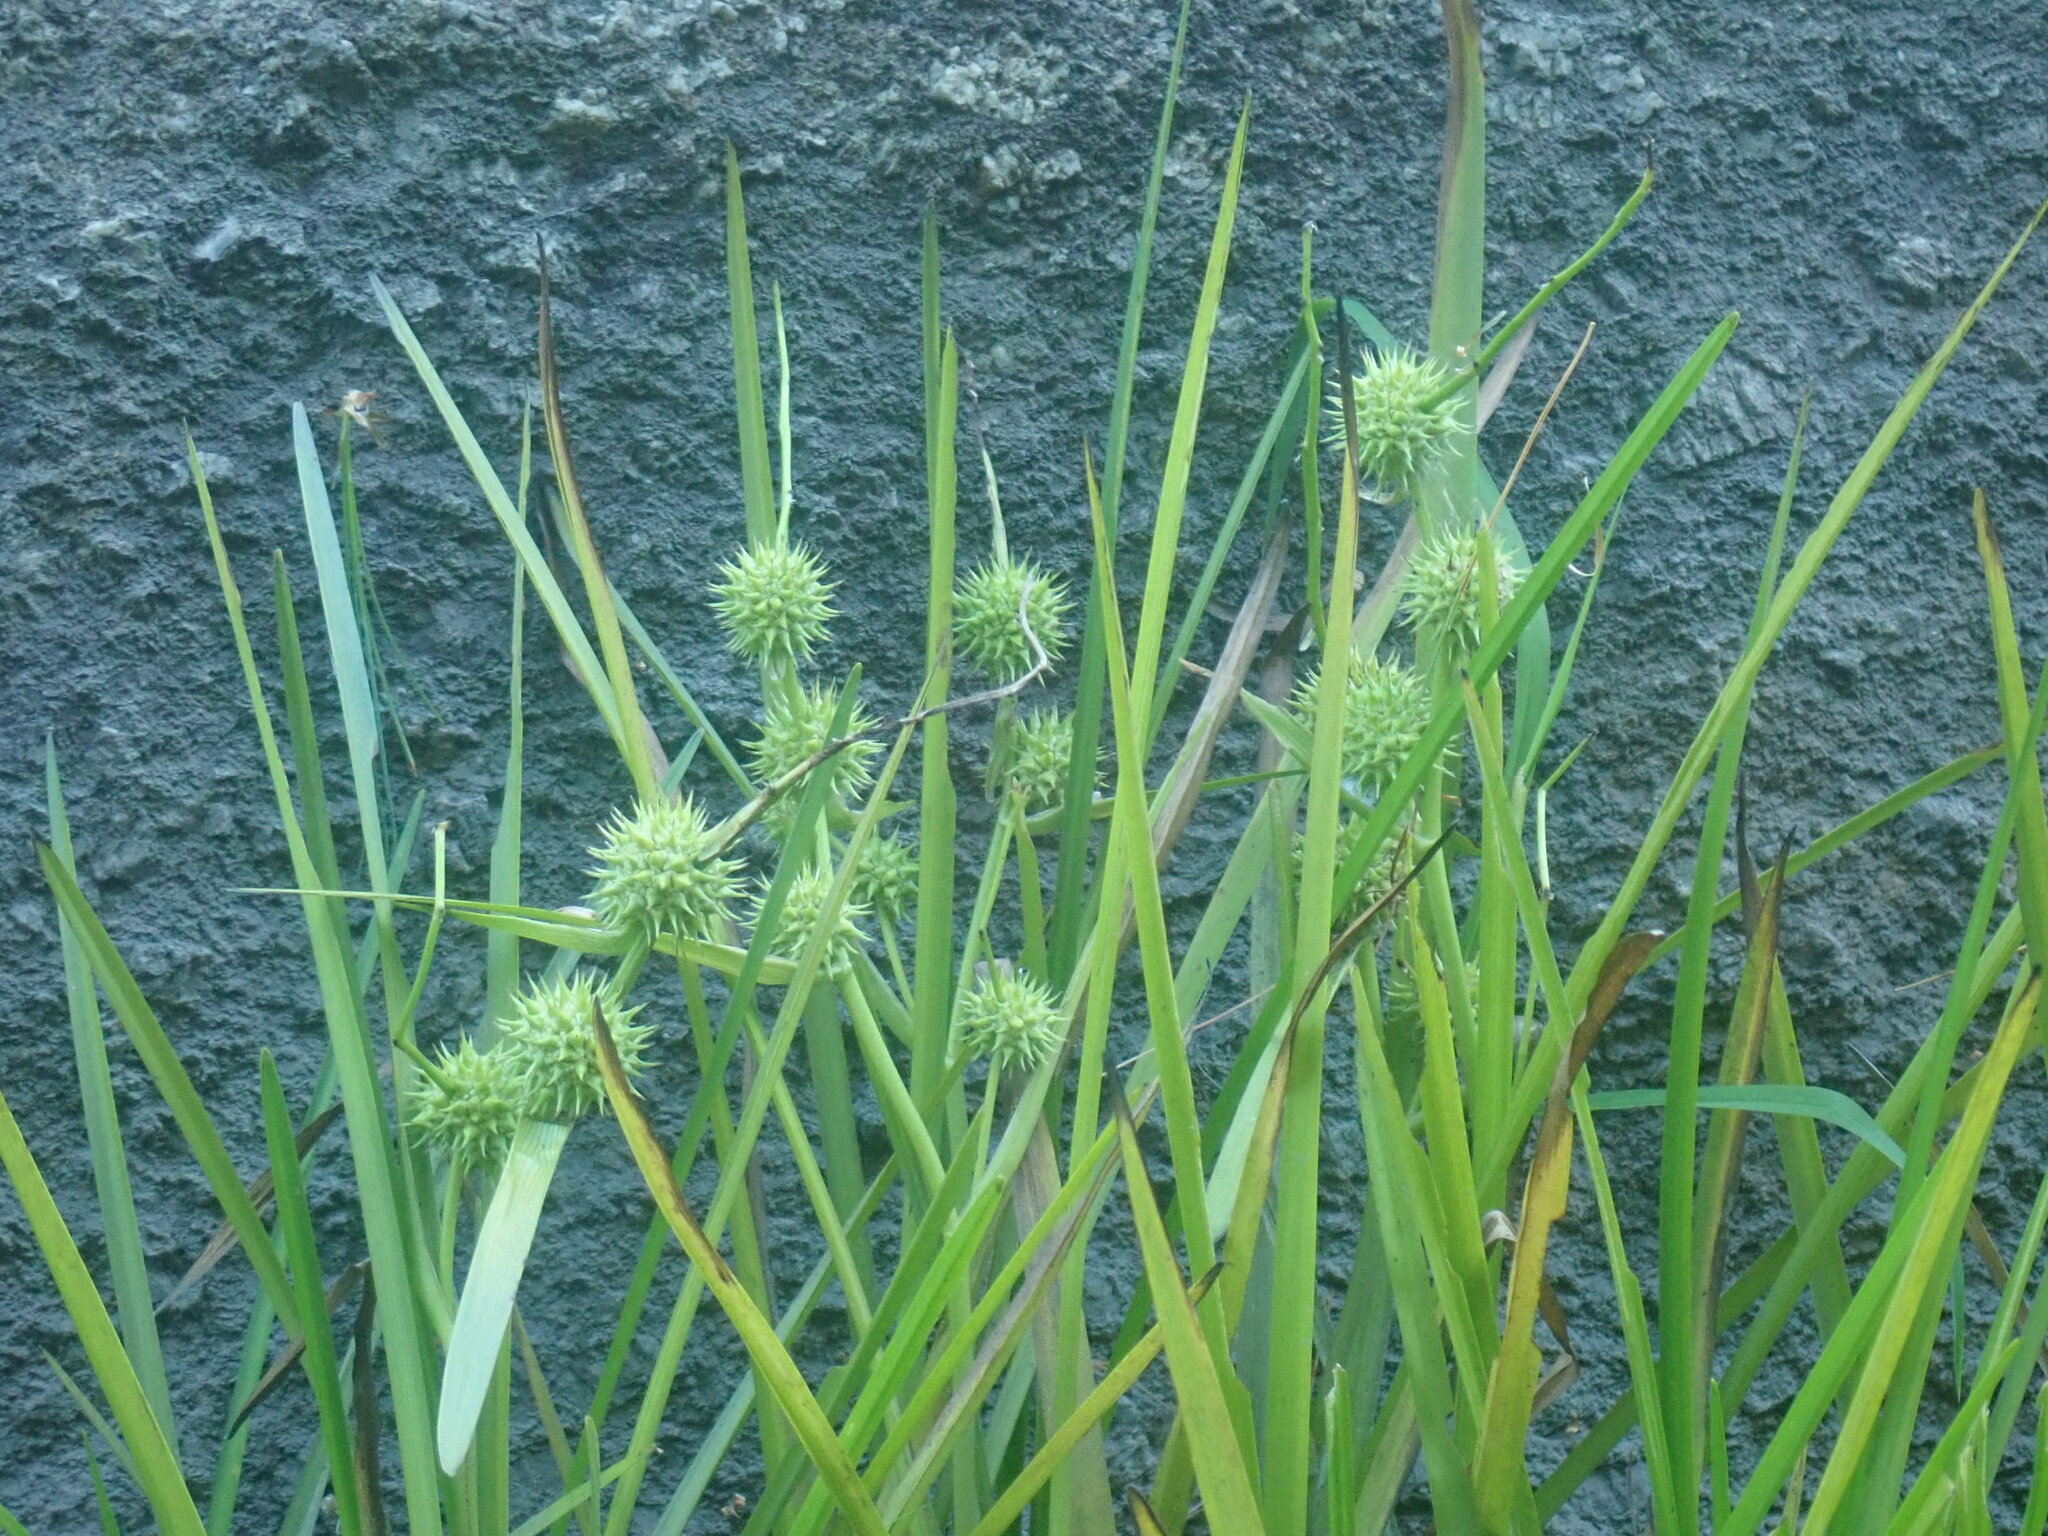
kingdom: Plantae
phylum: Tracheophyta
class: Liliopsida
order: Poales
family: Typhaceae
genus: Sparganium
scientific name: Sparganium
